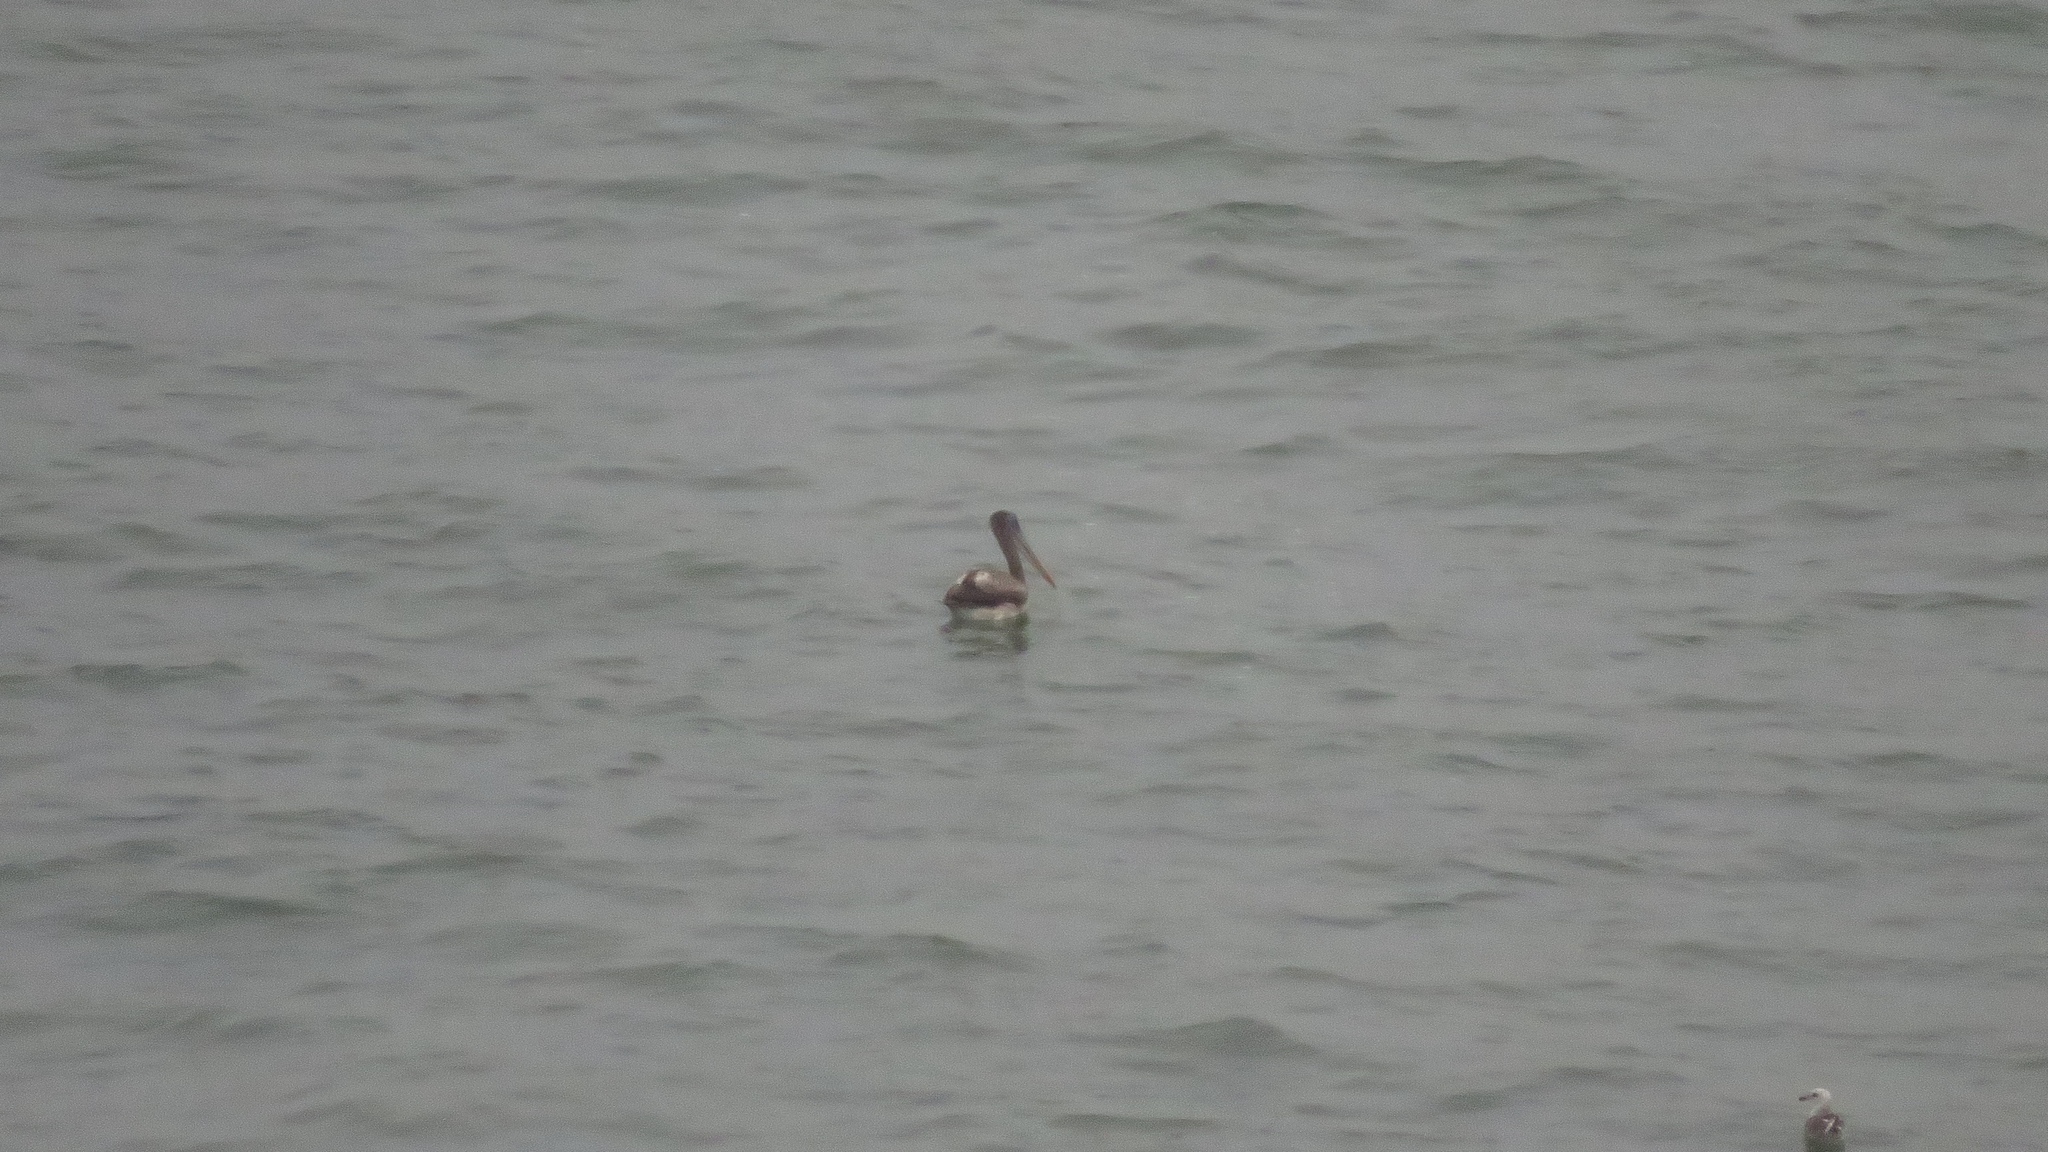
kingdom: Animalia
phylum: Chordata
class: Aves
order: Pelecaniformes
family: Pelecanidae
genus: Pelecanus
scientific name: Pelecanus thagus
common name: Peruvian pelican
